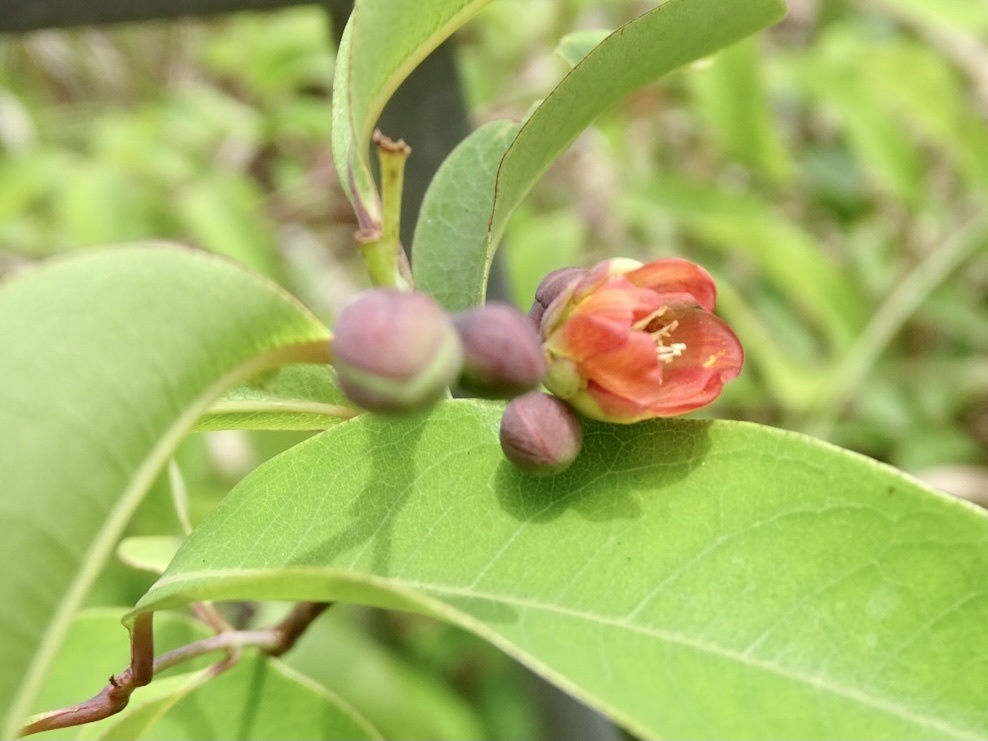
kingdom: Plantae
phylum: Tracheophyta
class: Magnoliopsida
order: Malpighiales
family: Hypericaceae
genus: Cratoxylum
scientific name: Cratoxylum cochinchinense
